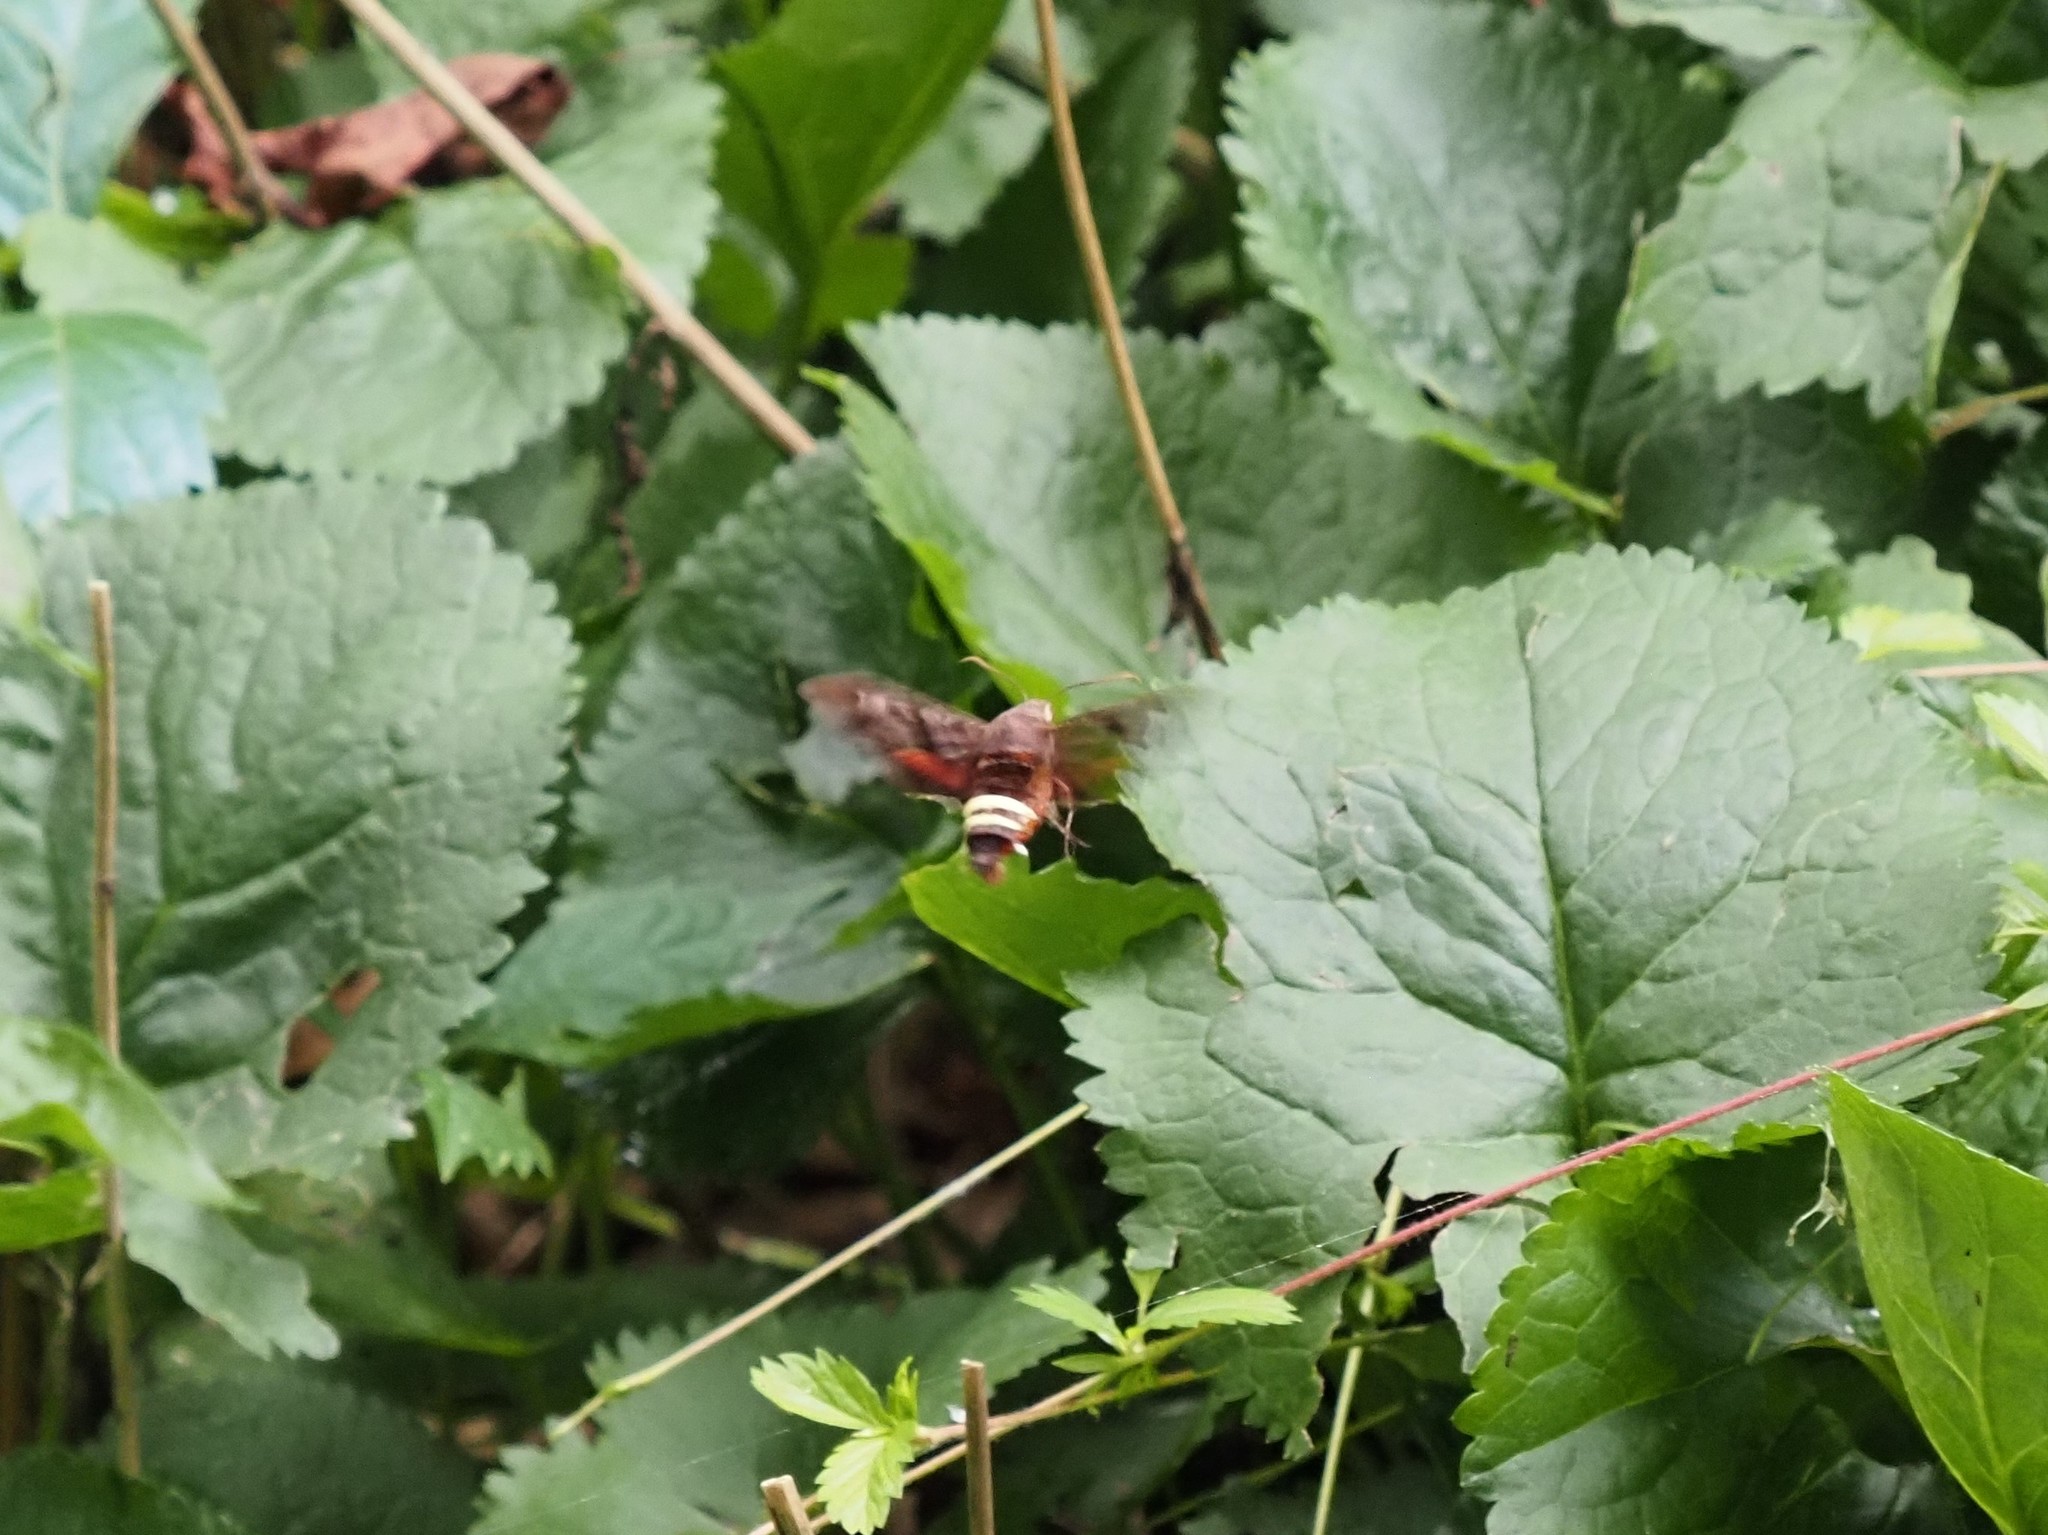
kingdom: Animalia
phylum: Arthropoda
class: Insecta
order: Lepidoptera
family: Sphingidae
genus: Amphion
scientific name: Amphion floridensis
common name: Nessus sphinx
